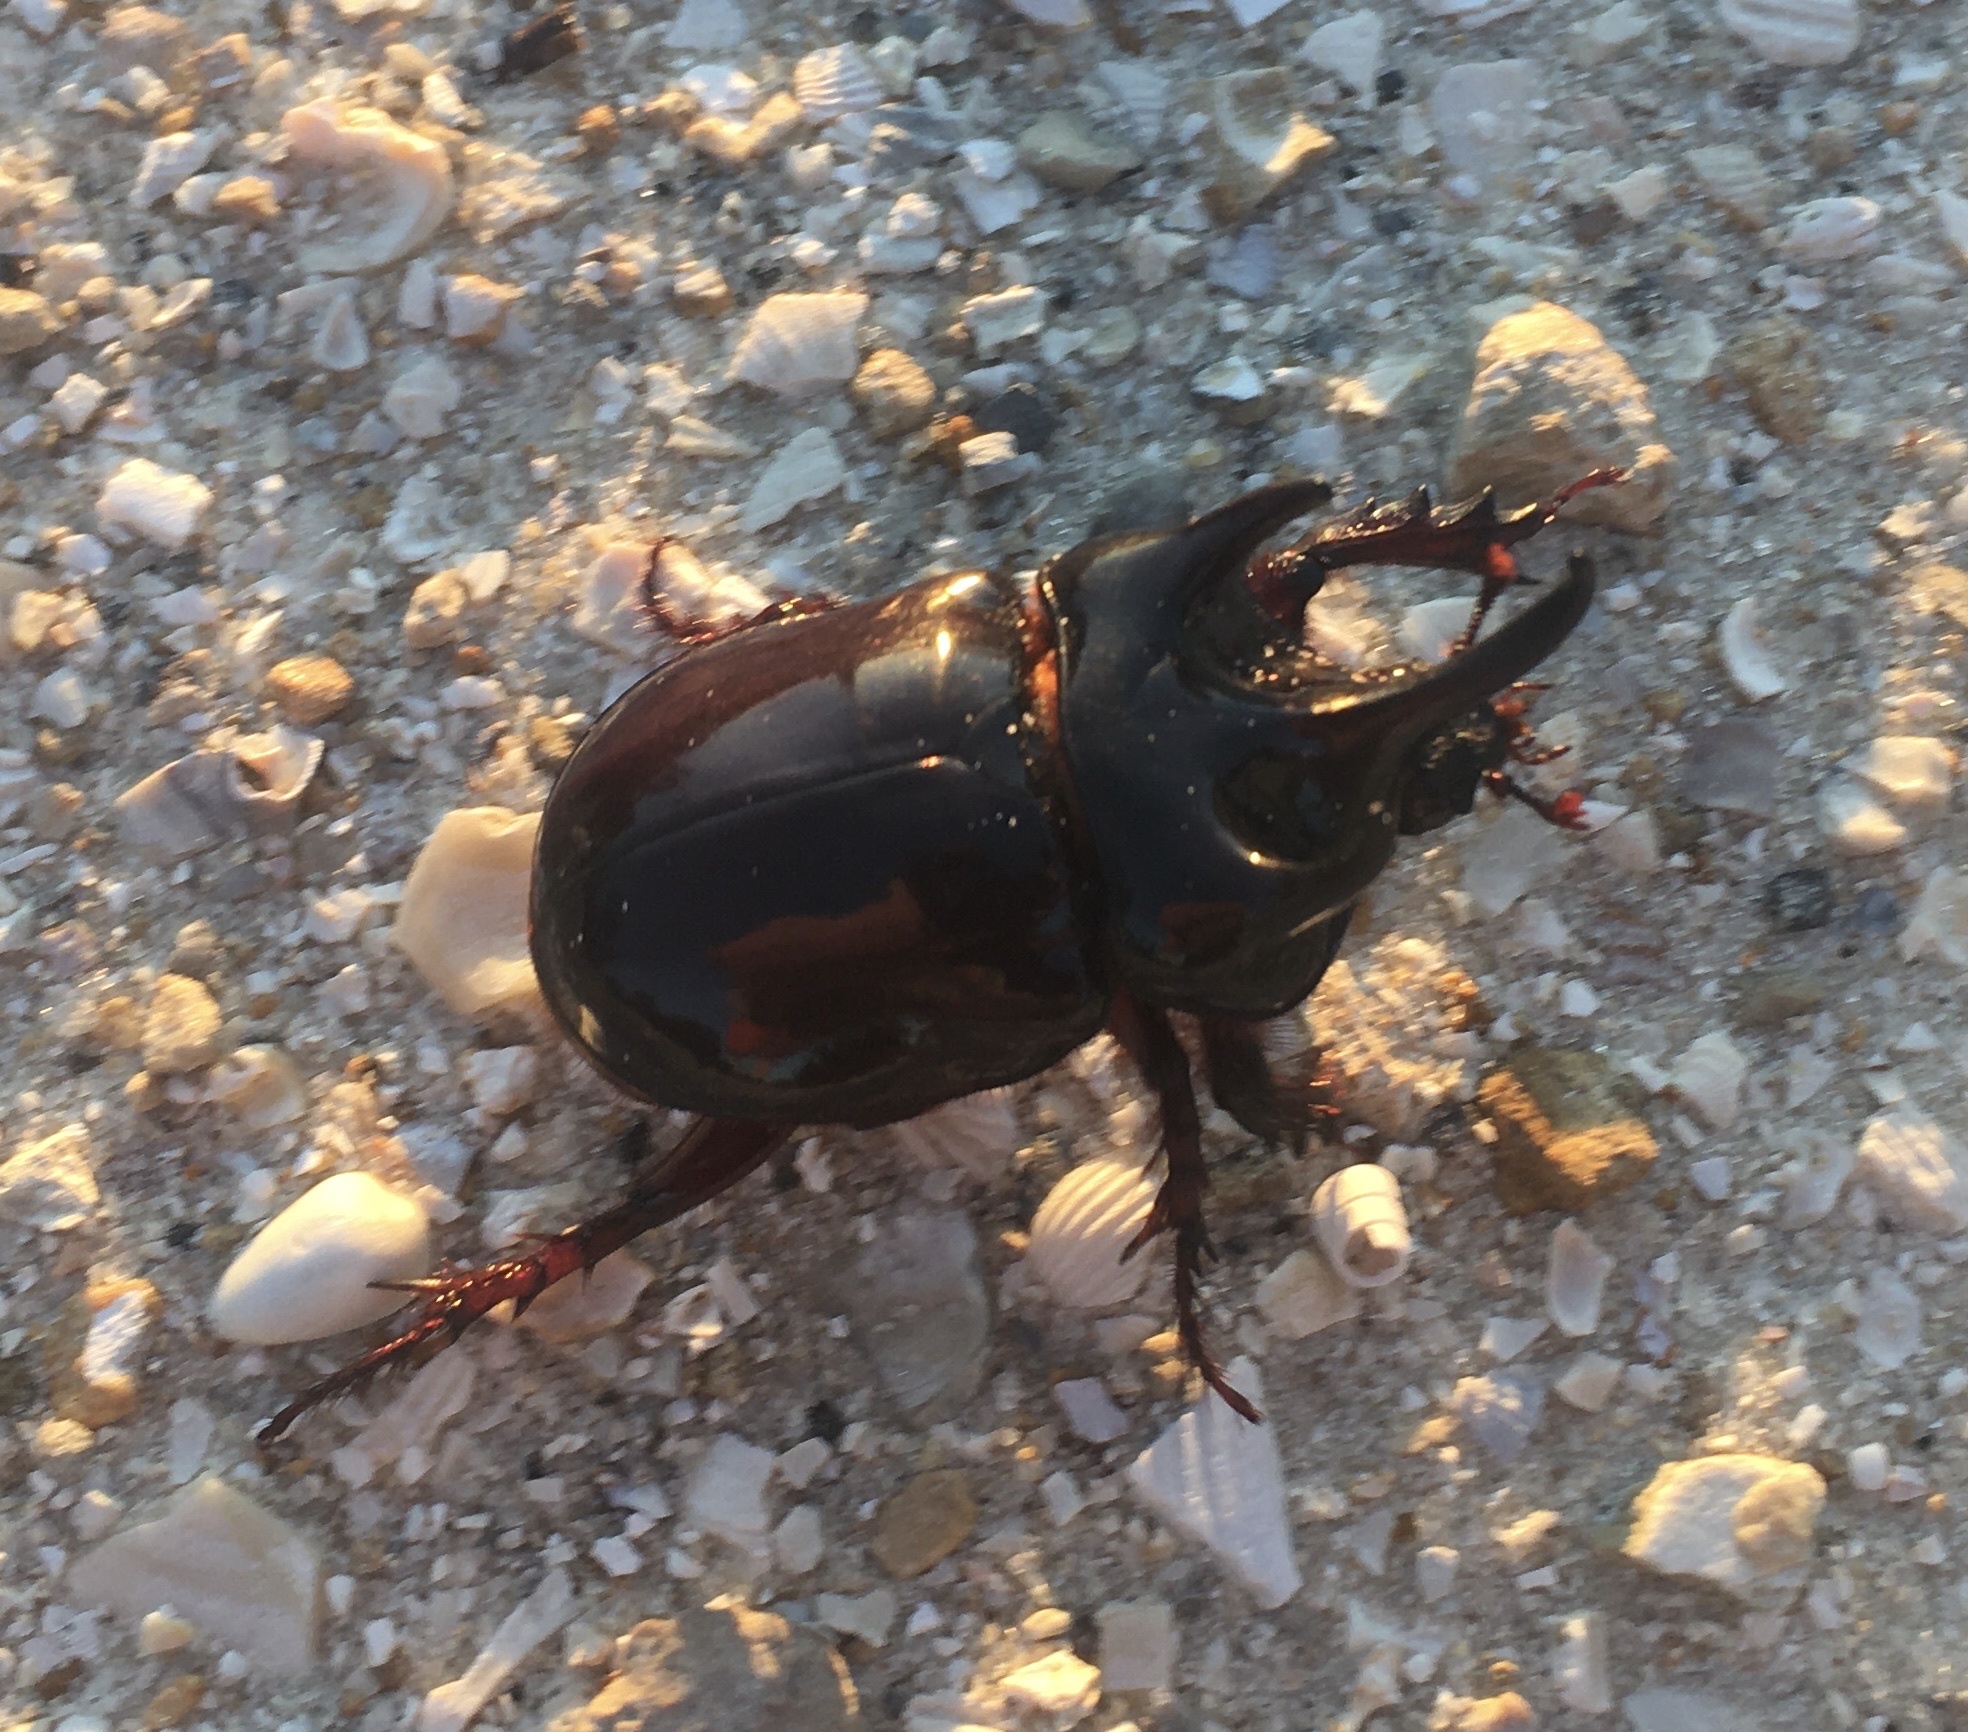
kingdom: Animalia
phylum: Arthropoda
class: Insecta
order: Coleoptera
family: Scarabaeidae
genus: Strategus
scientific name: Strategus antaeus
